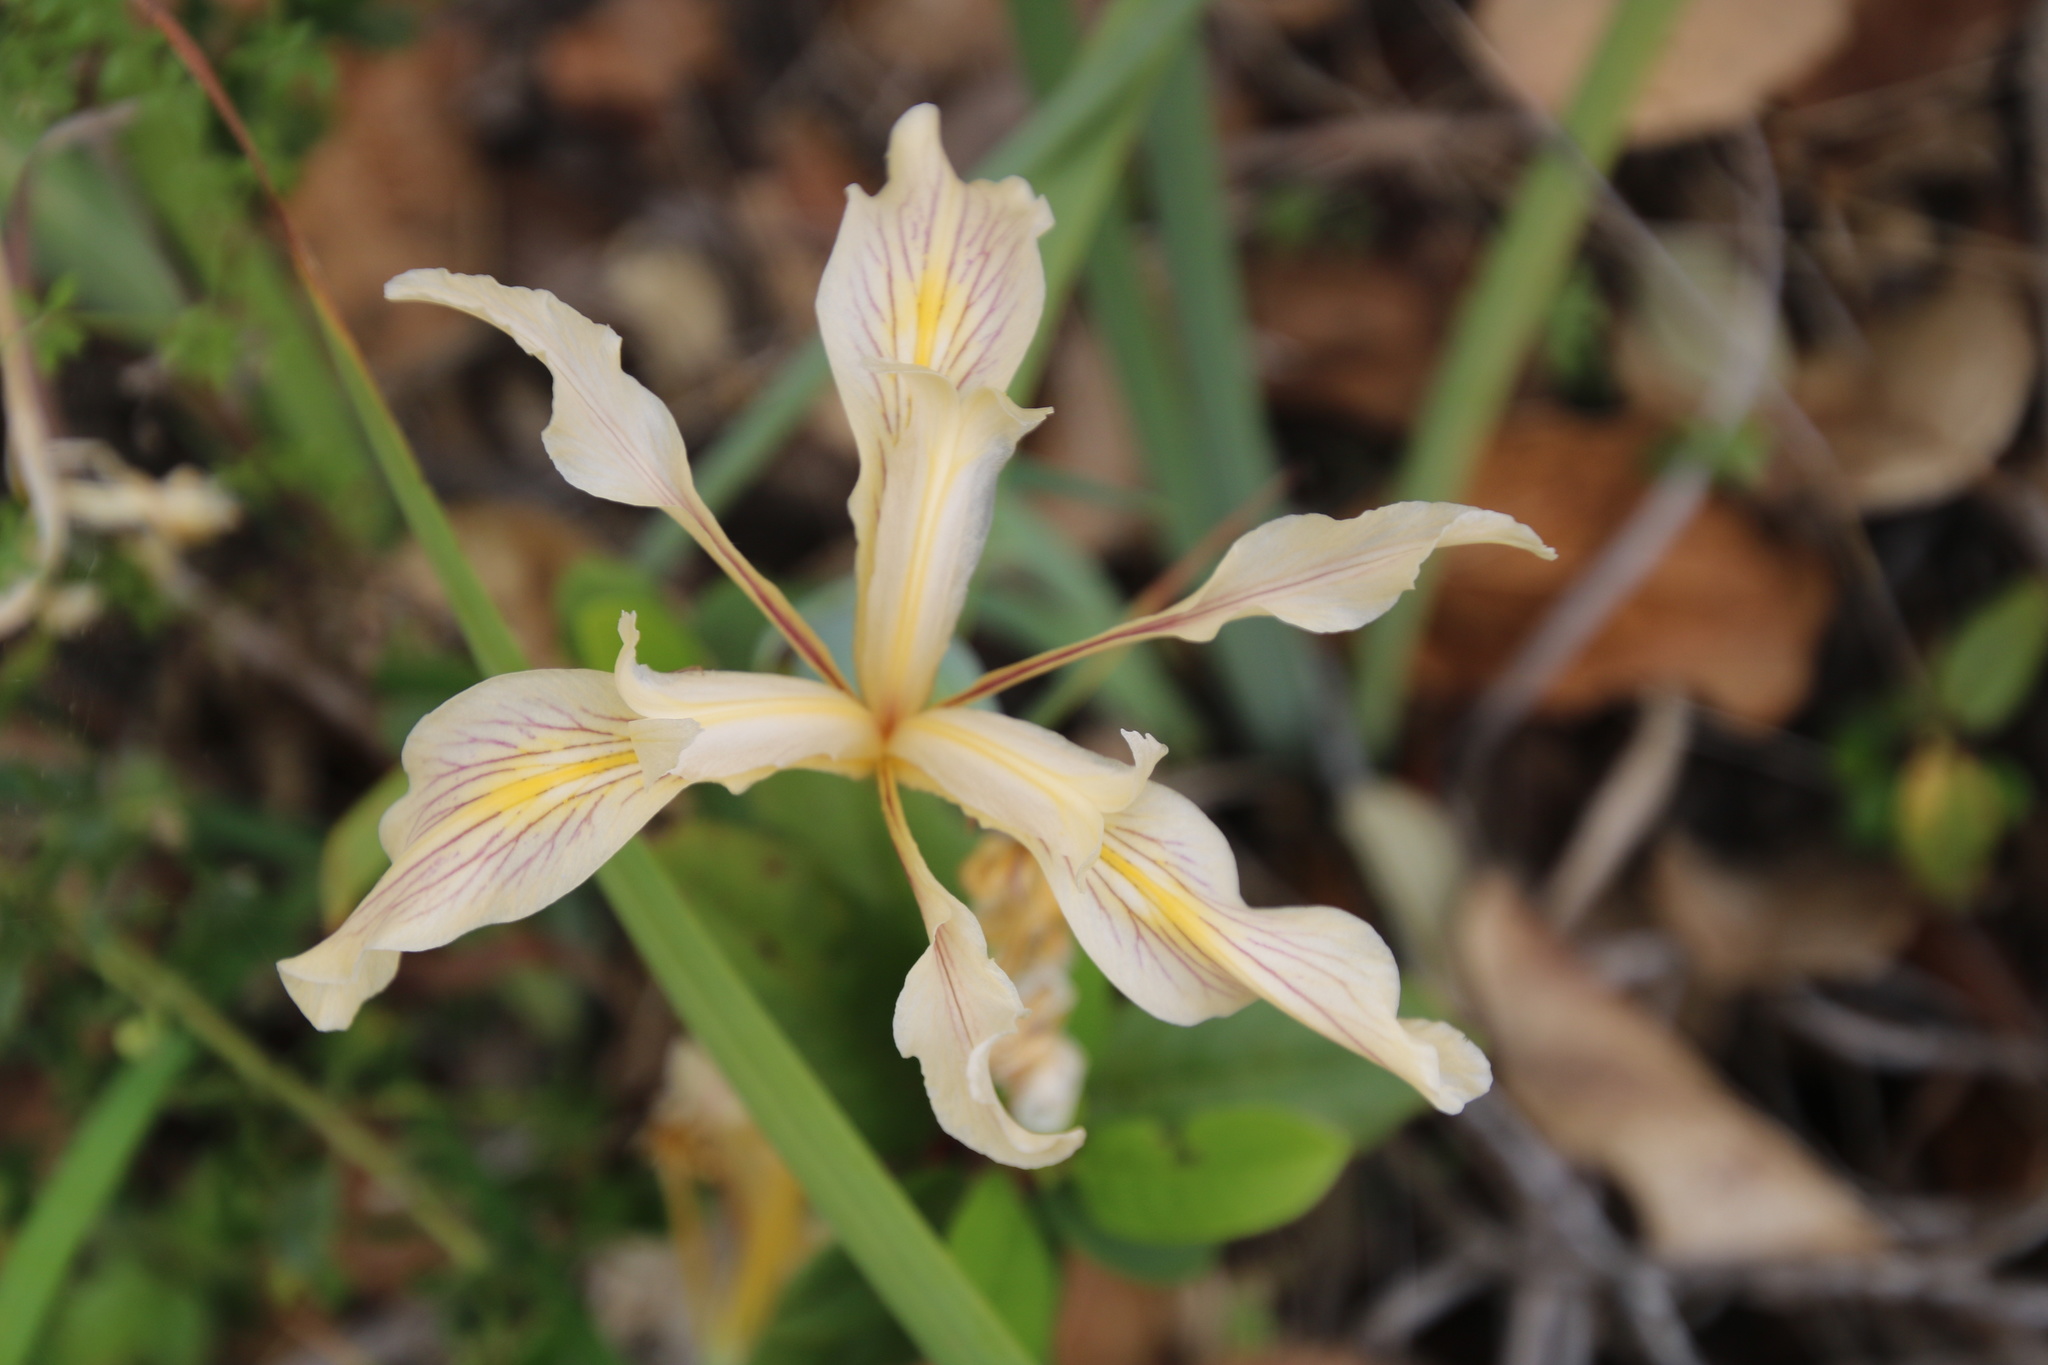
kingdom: Plantae
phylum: Tracheophyta
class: Liliopsida
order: Asparagales
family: Iridaceae
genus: Iris
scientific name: Iris fernaldii
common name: Fernald's iris
